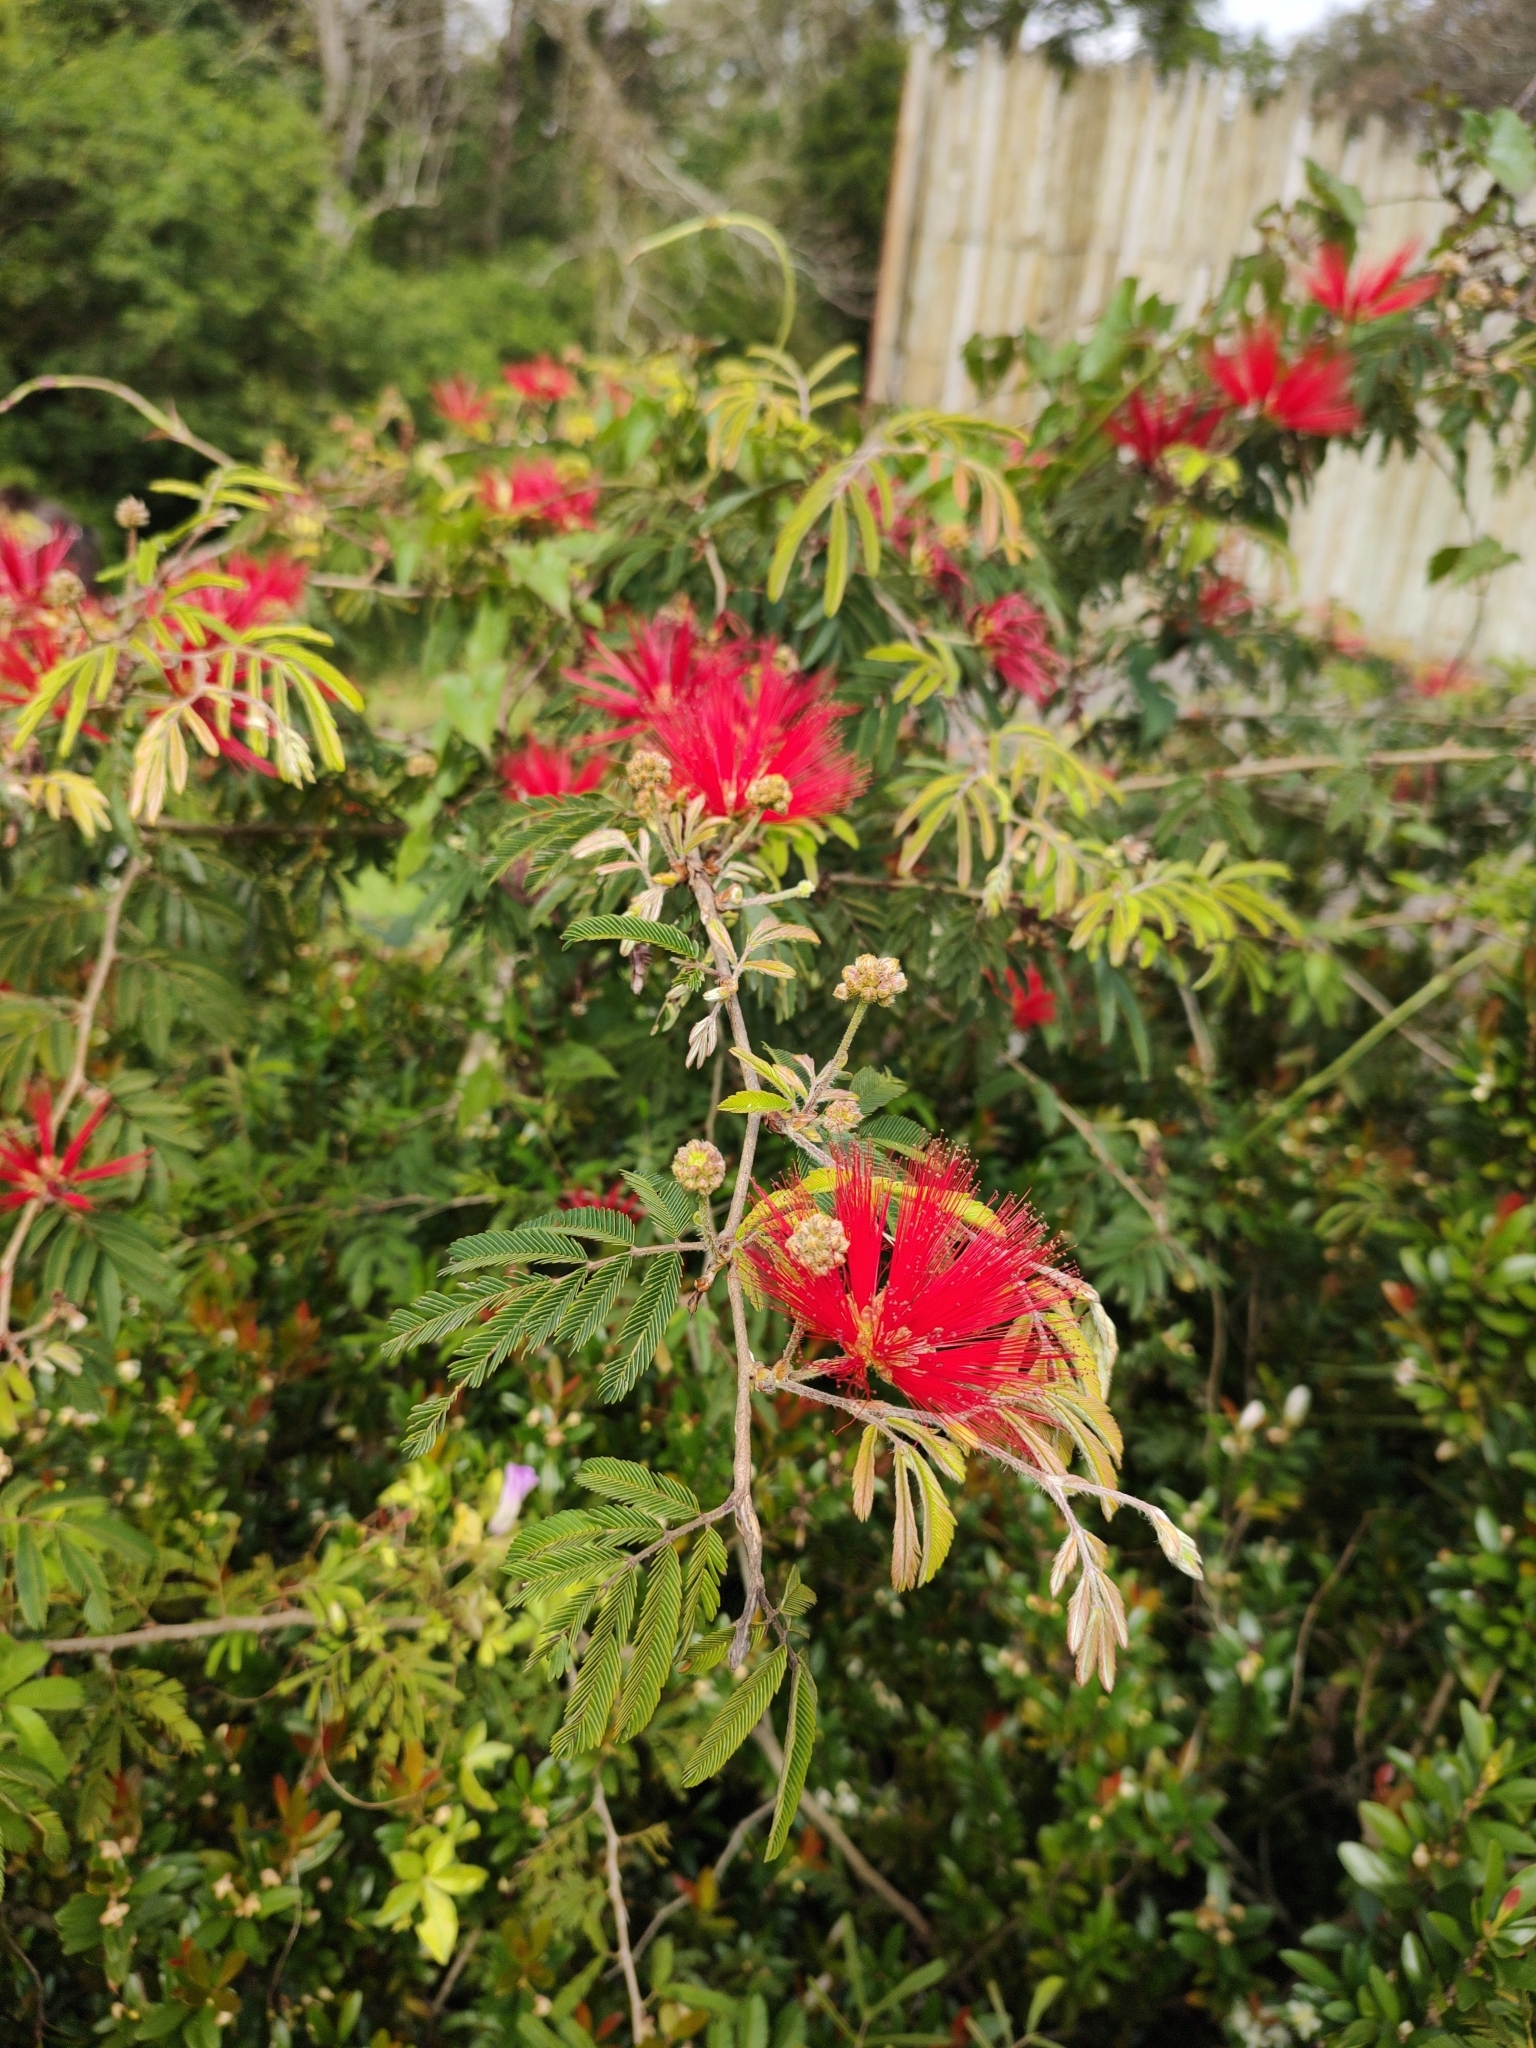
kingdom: Plantae
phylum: Tracheophyta
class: Magnoliopsida
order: Fabales
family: Fabaceae
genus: Calliandra
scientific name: Calliandra tweediei
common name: Mexican flamebush
